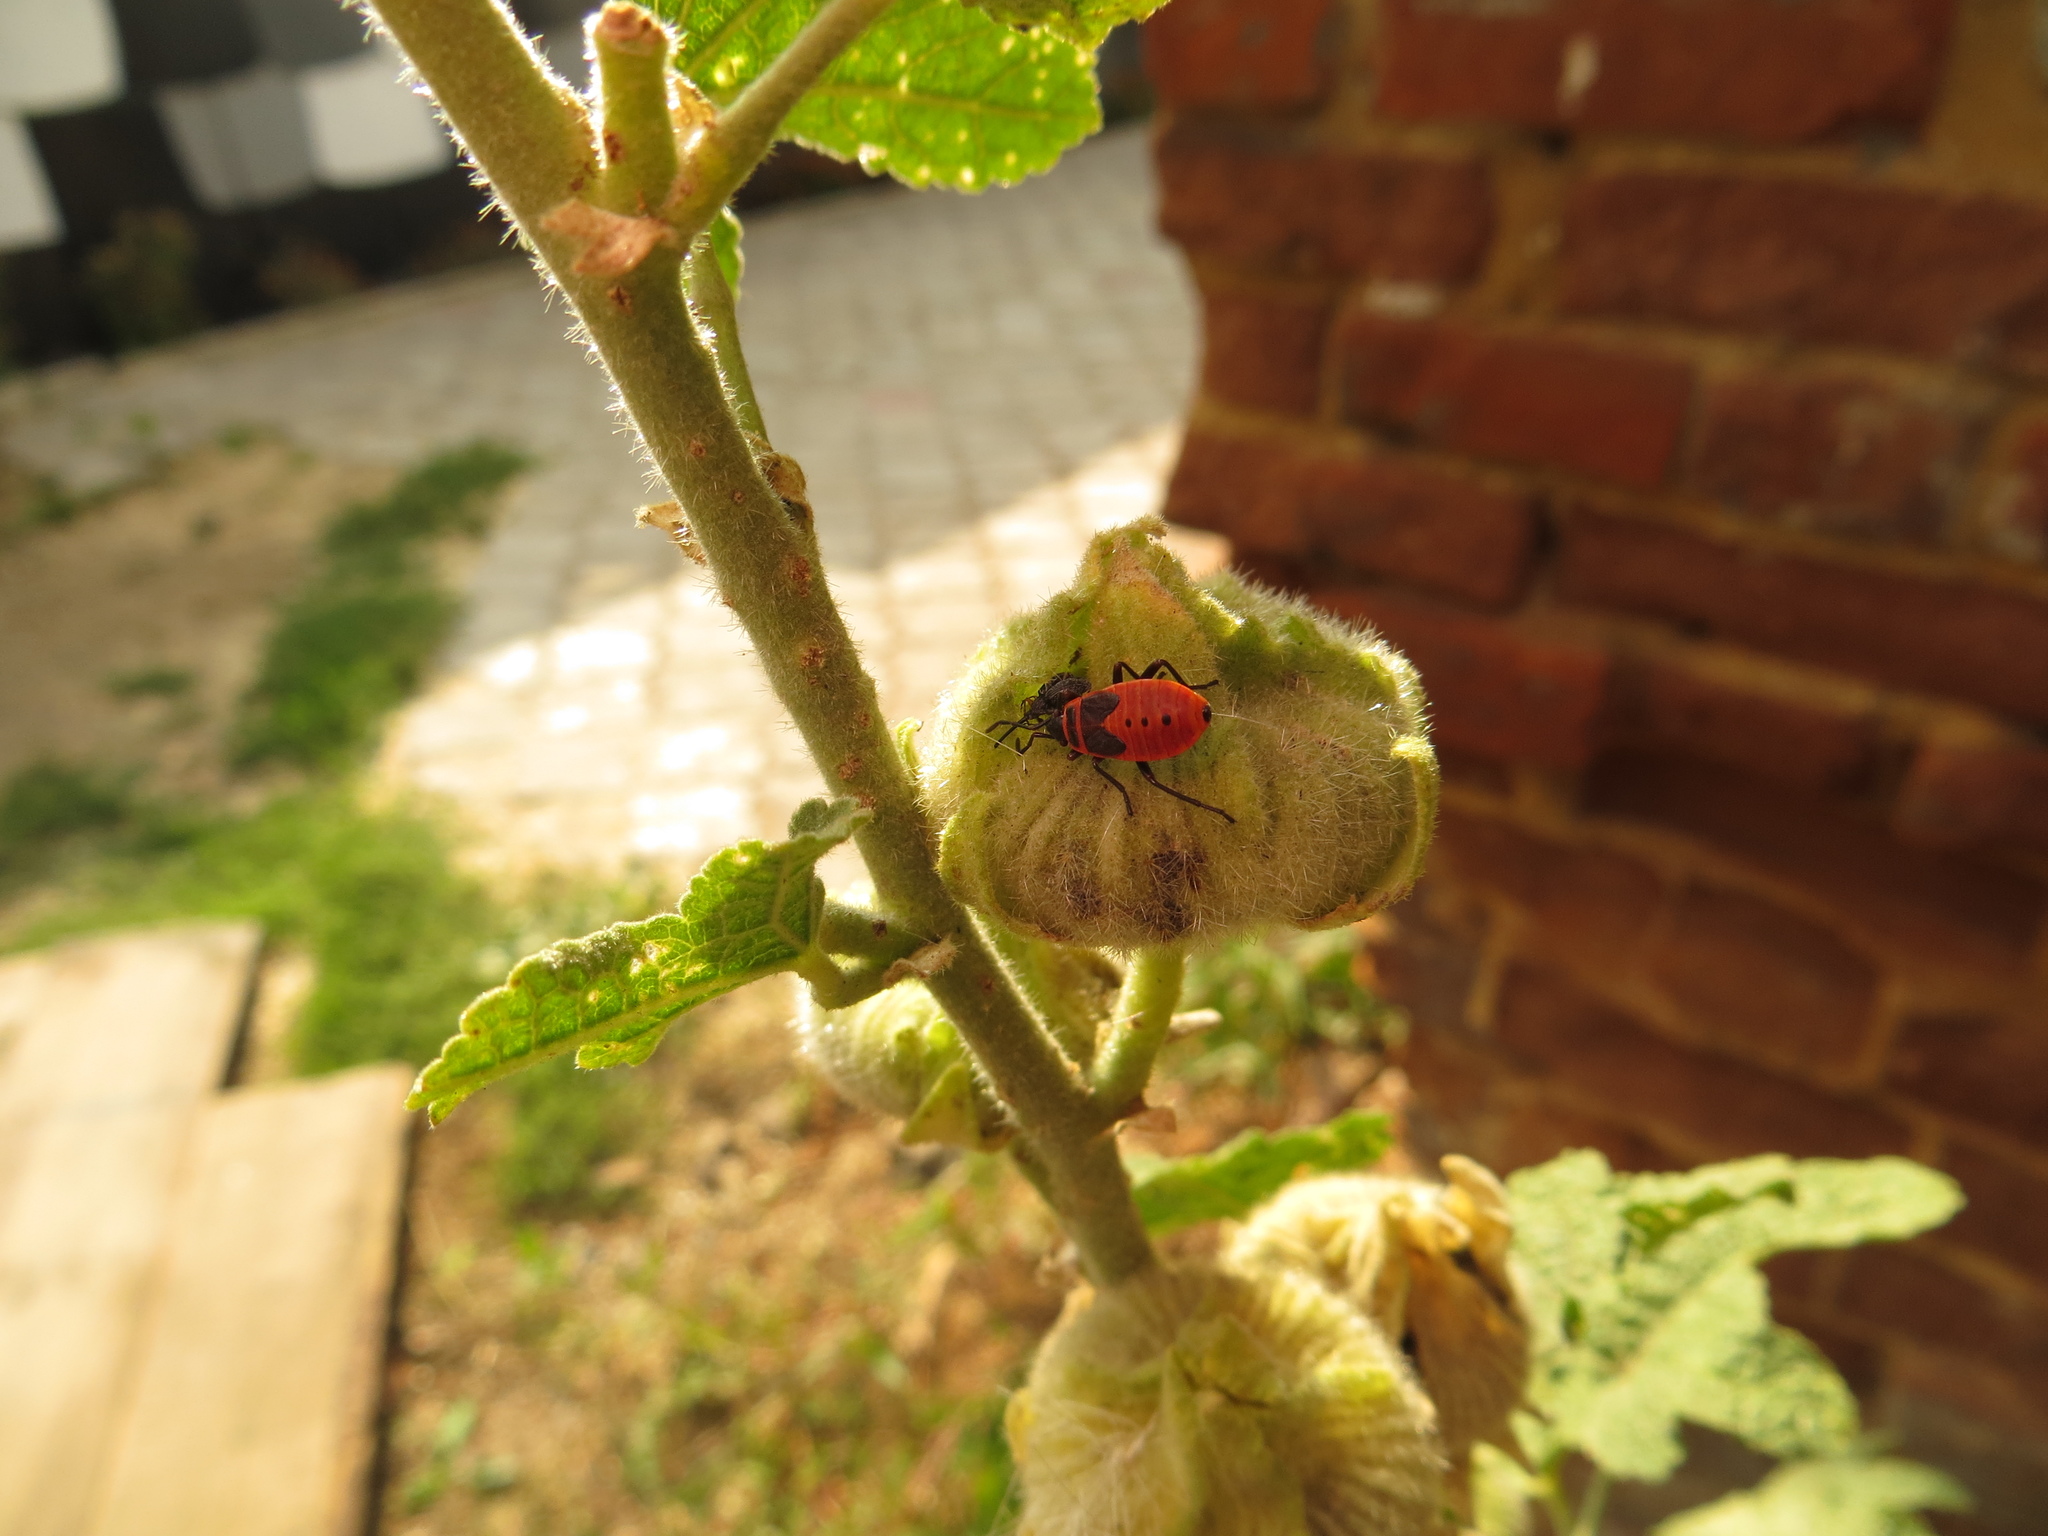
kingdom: Animalia
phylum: Arthropoda
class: Insecta
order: Hemiptera
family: Pyrrhocoridae
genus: Pyrrhocoris
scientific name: Pyrrhocoris apterus
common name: Firebug
